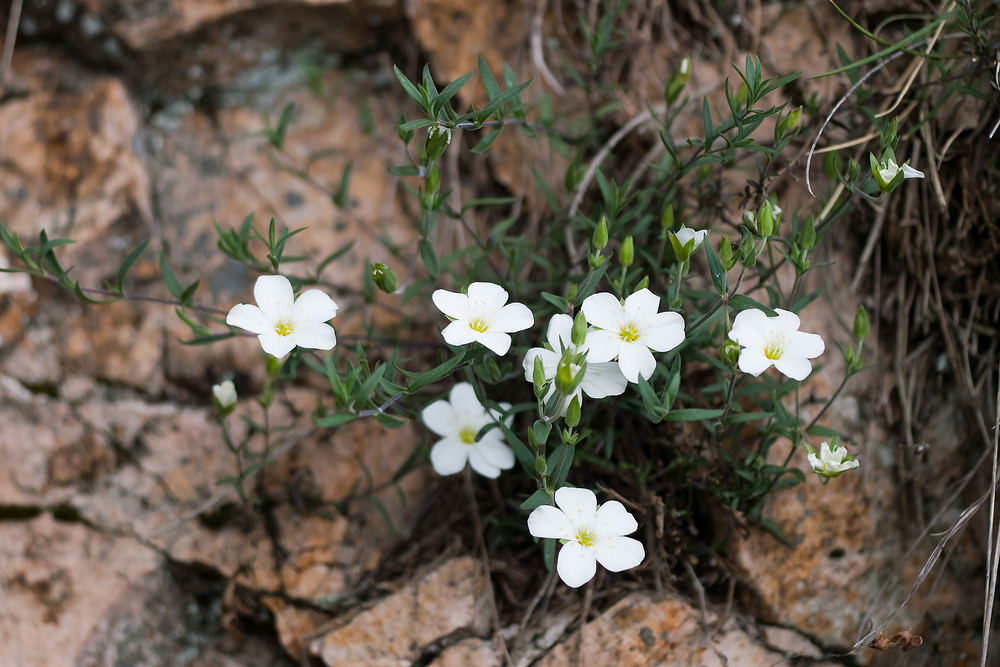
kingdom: Plantae
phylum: Tracheophyta
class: Magnoliopsida
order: Caryophyllales
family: Caryophyllaceae
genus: Arenaria
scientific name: Arenaria montana
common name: Mountain sandwort
